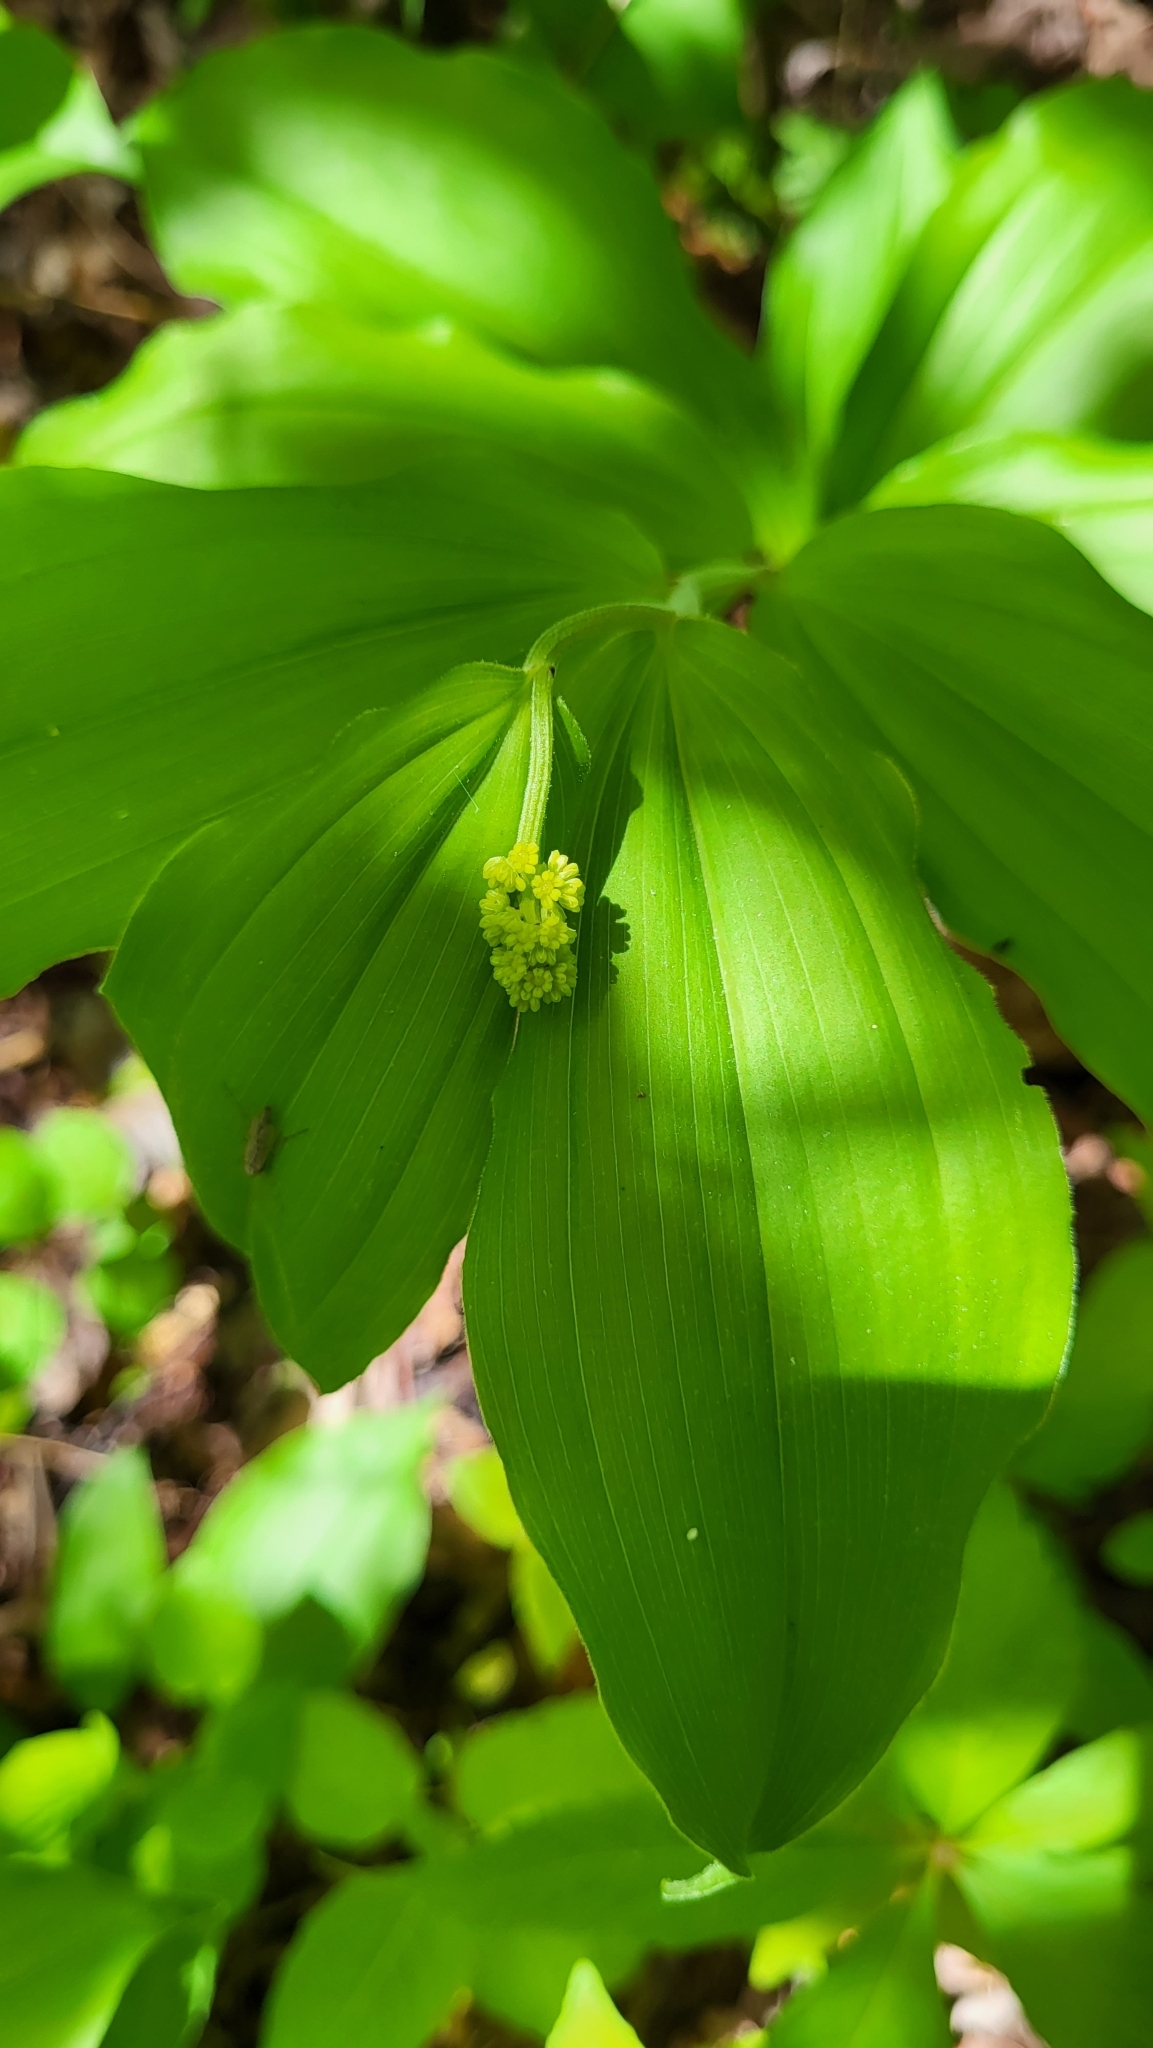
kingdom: Plantae
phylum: Tracheophyta
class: Liliopsida
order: Asparagales
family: Asparagaceae
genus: Maianthemum
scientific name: Maianthemum racemosum
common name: False spikenard
